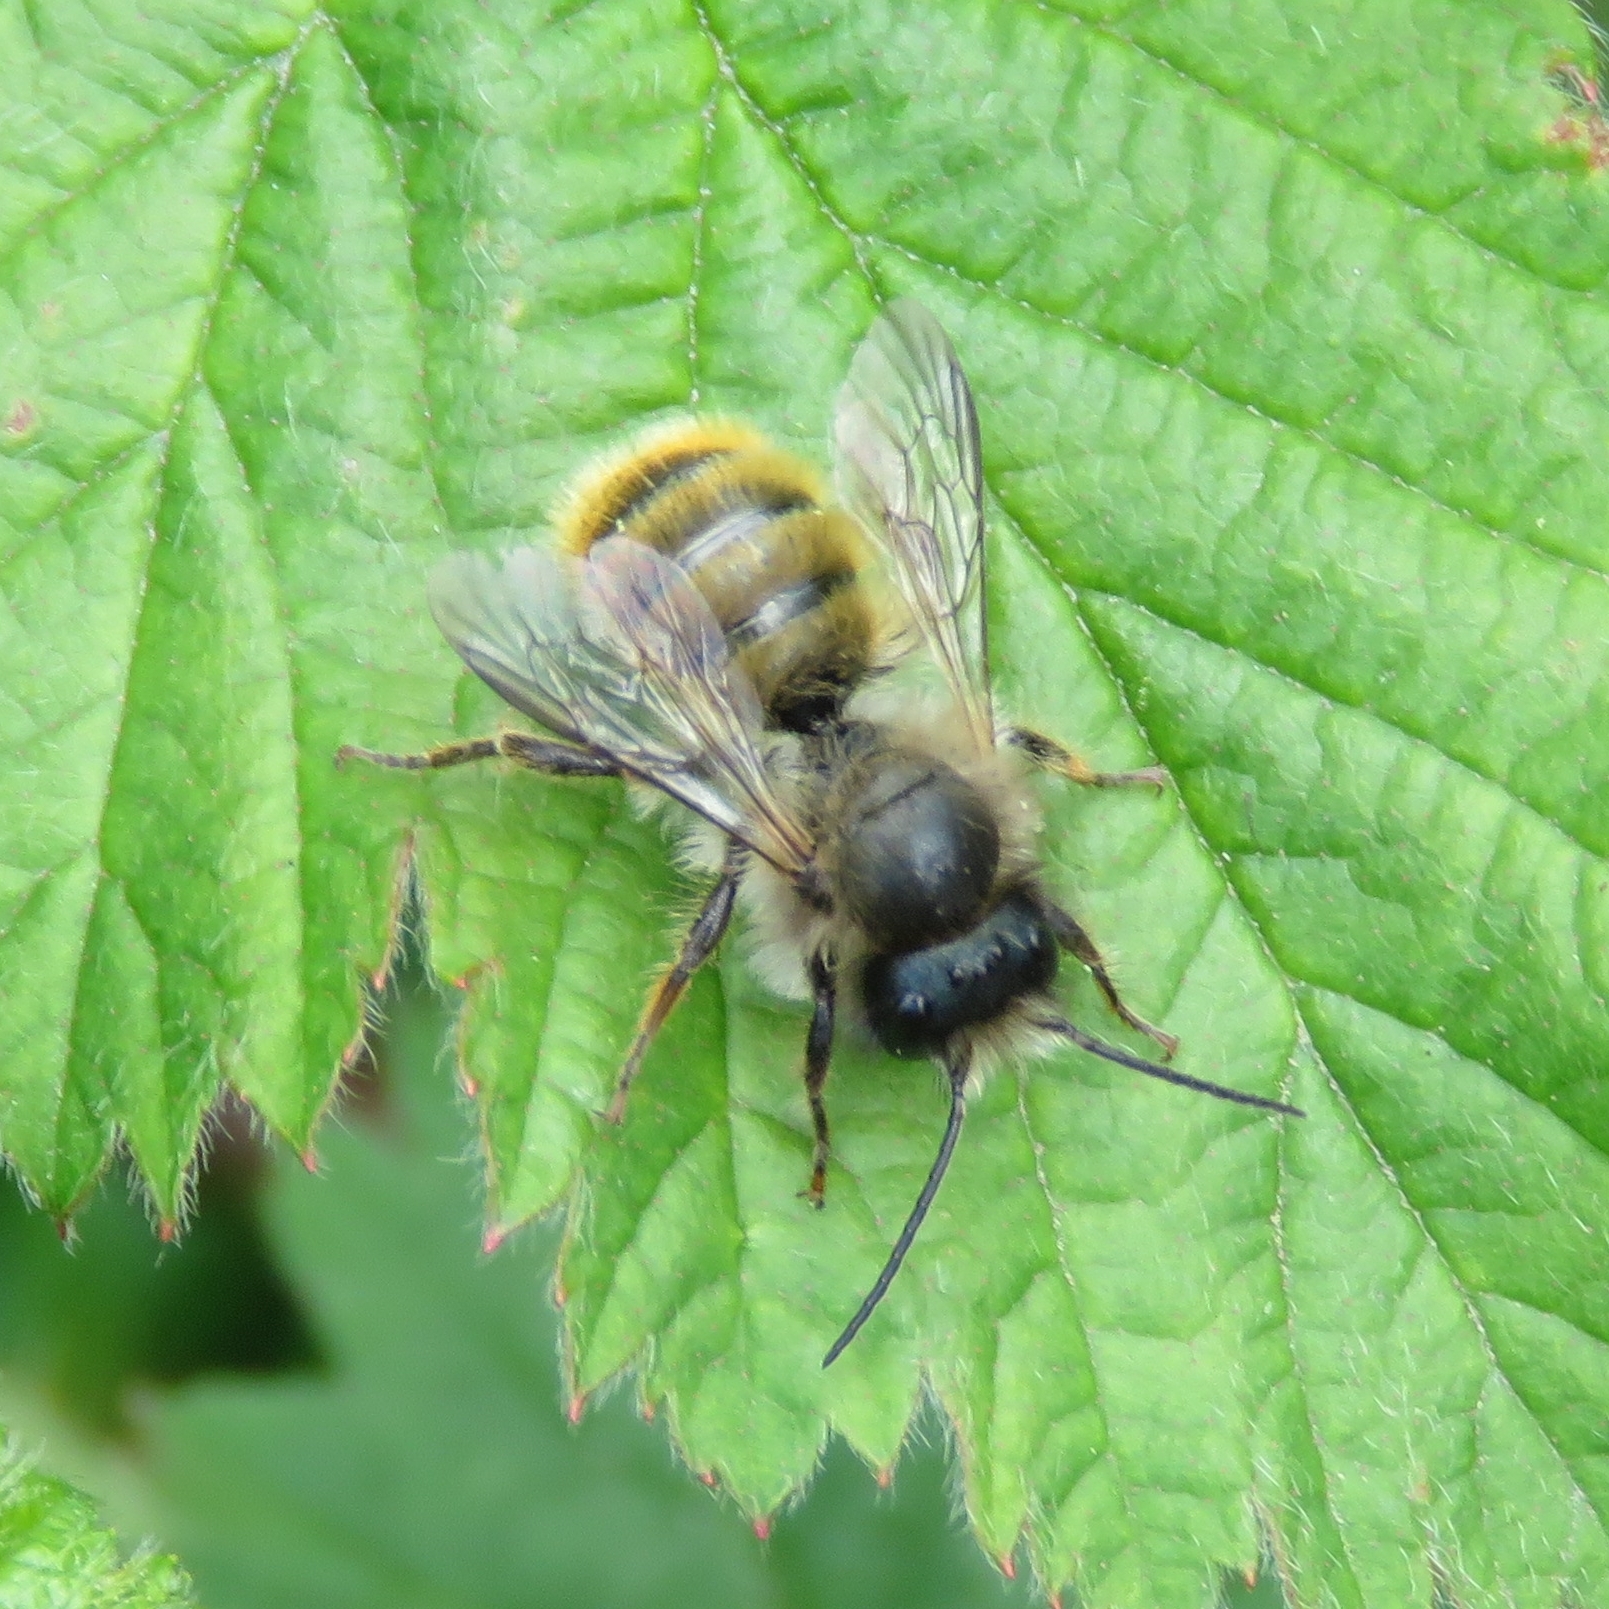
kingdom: Animalia
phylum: Arthropoda
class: Insecta
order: Hymenoptera
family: Megachilidae
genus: Osmia
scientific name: Osmia bicornis
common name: Red mason bee
